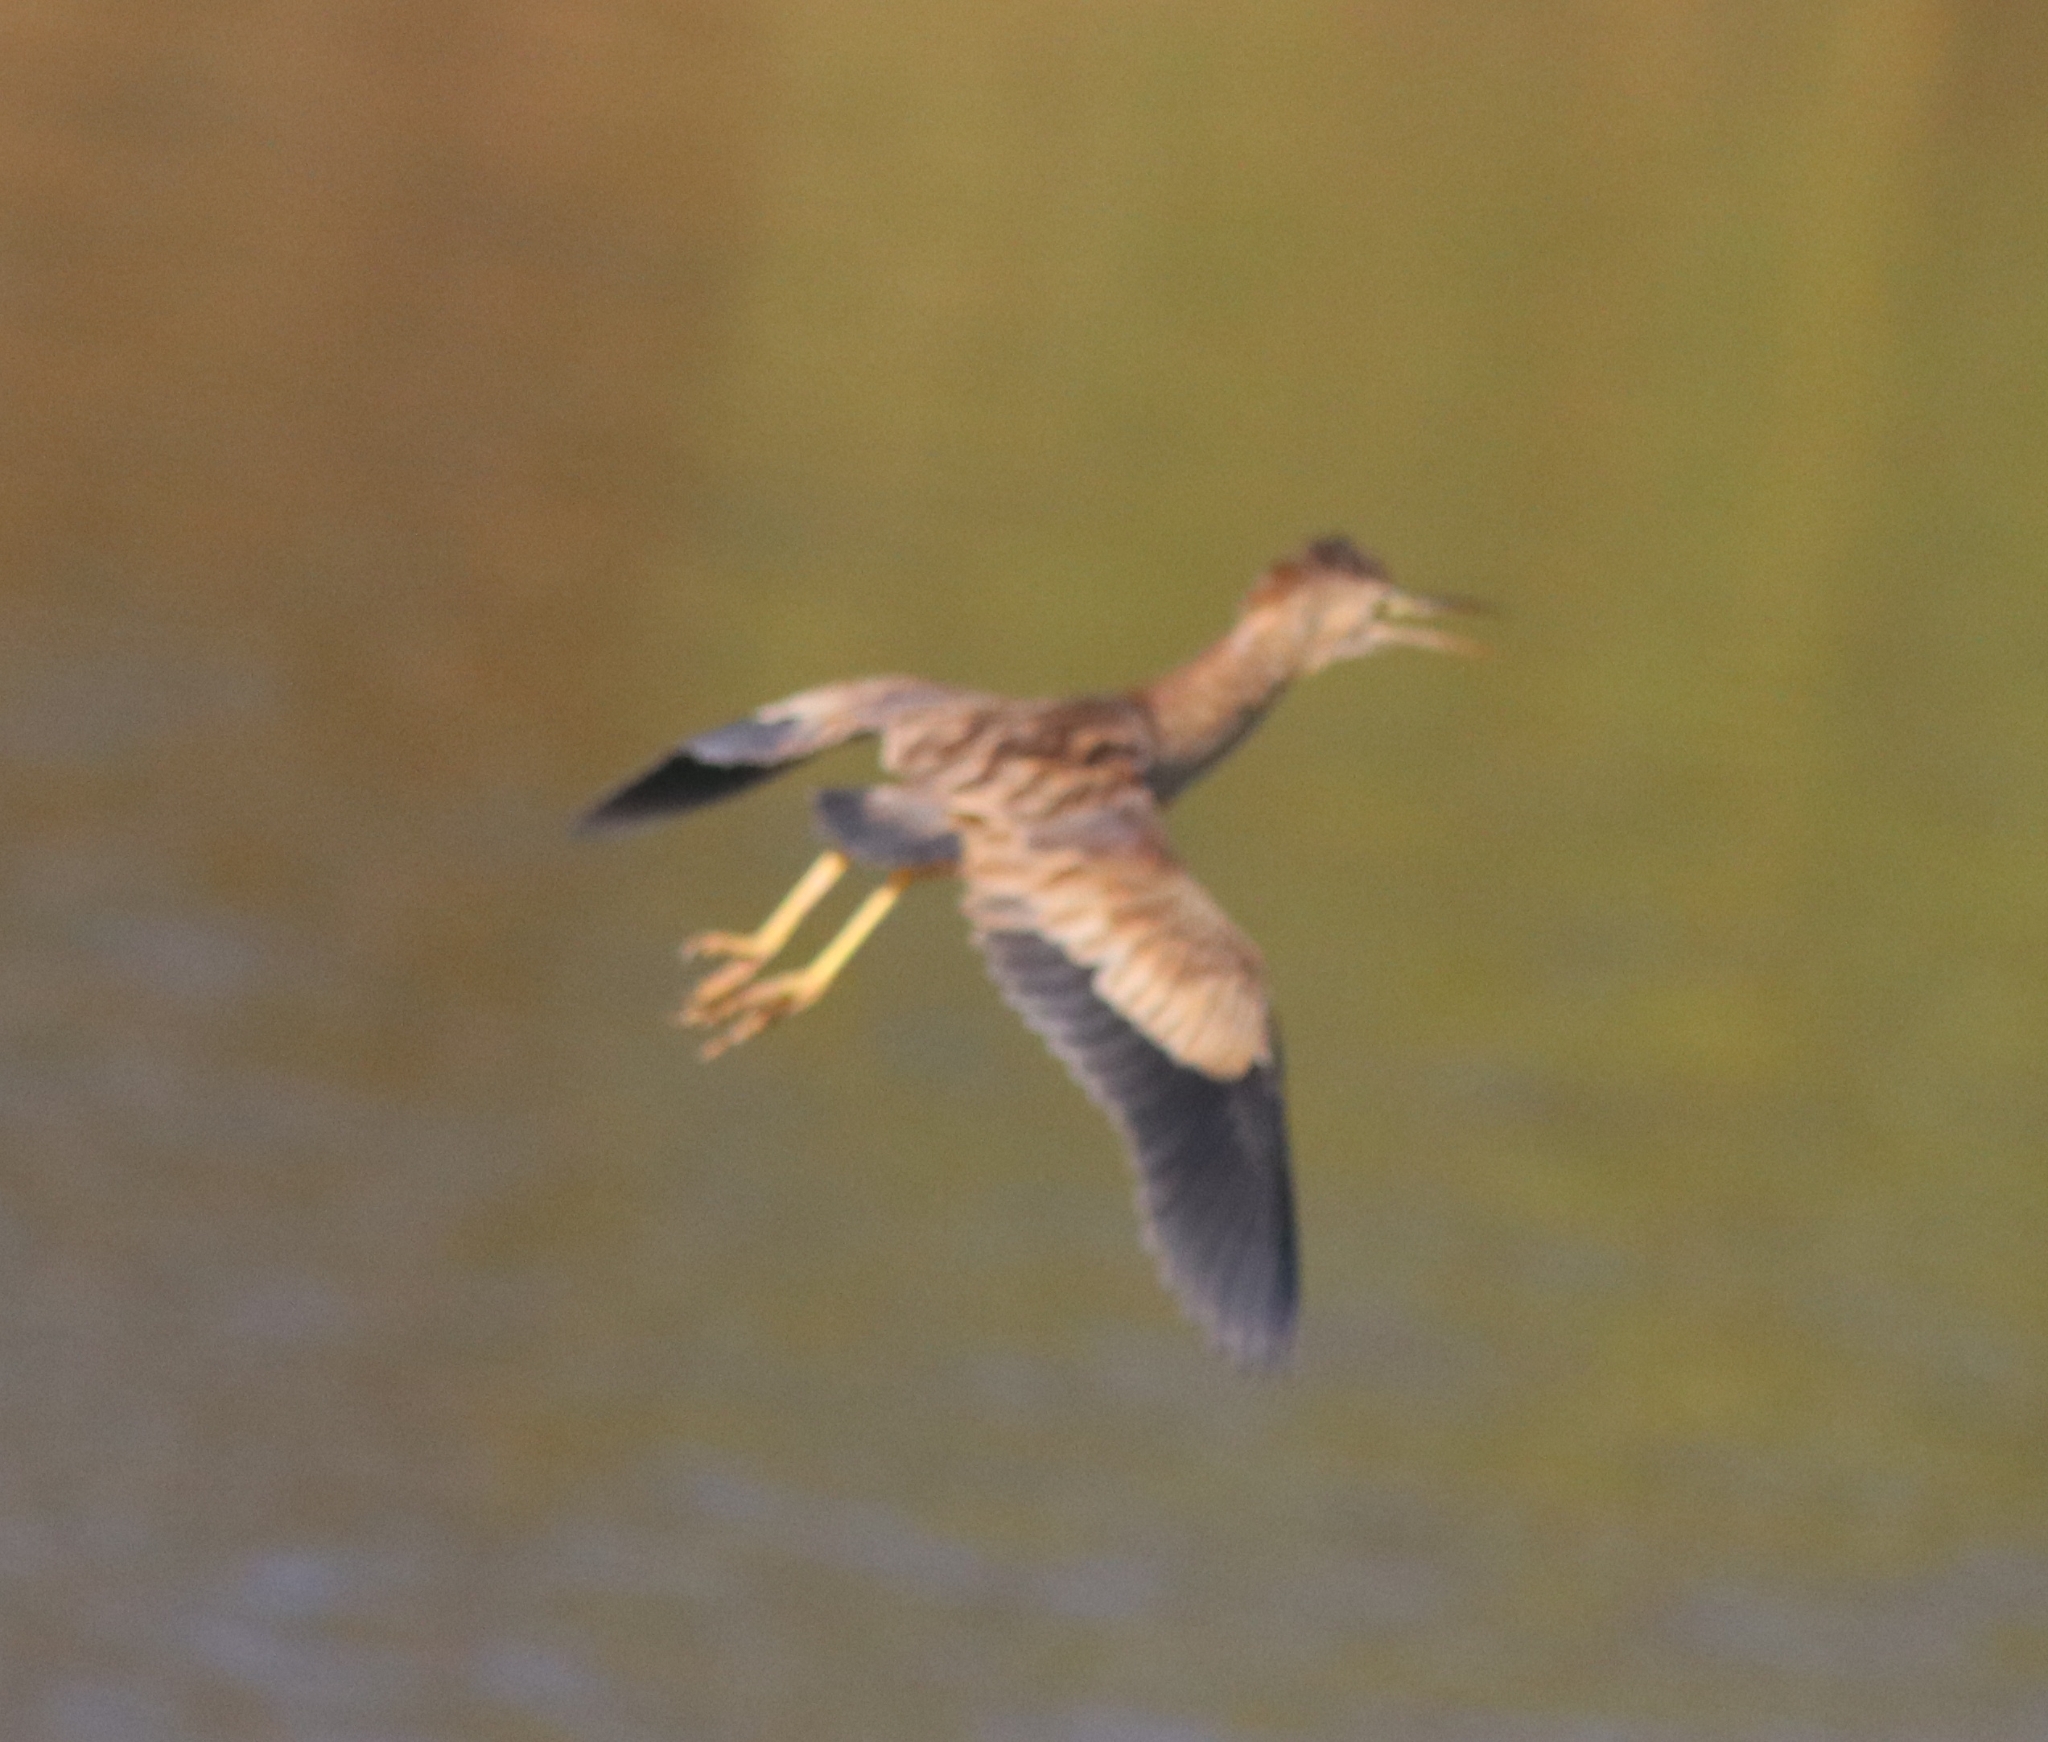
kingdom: Animalia
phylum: Chordata
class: Aves
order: Pelecaniformes
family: Ardeidae
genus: Ixobrychus
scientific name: Ixobrychus sinensis
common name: Yellow bittern
